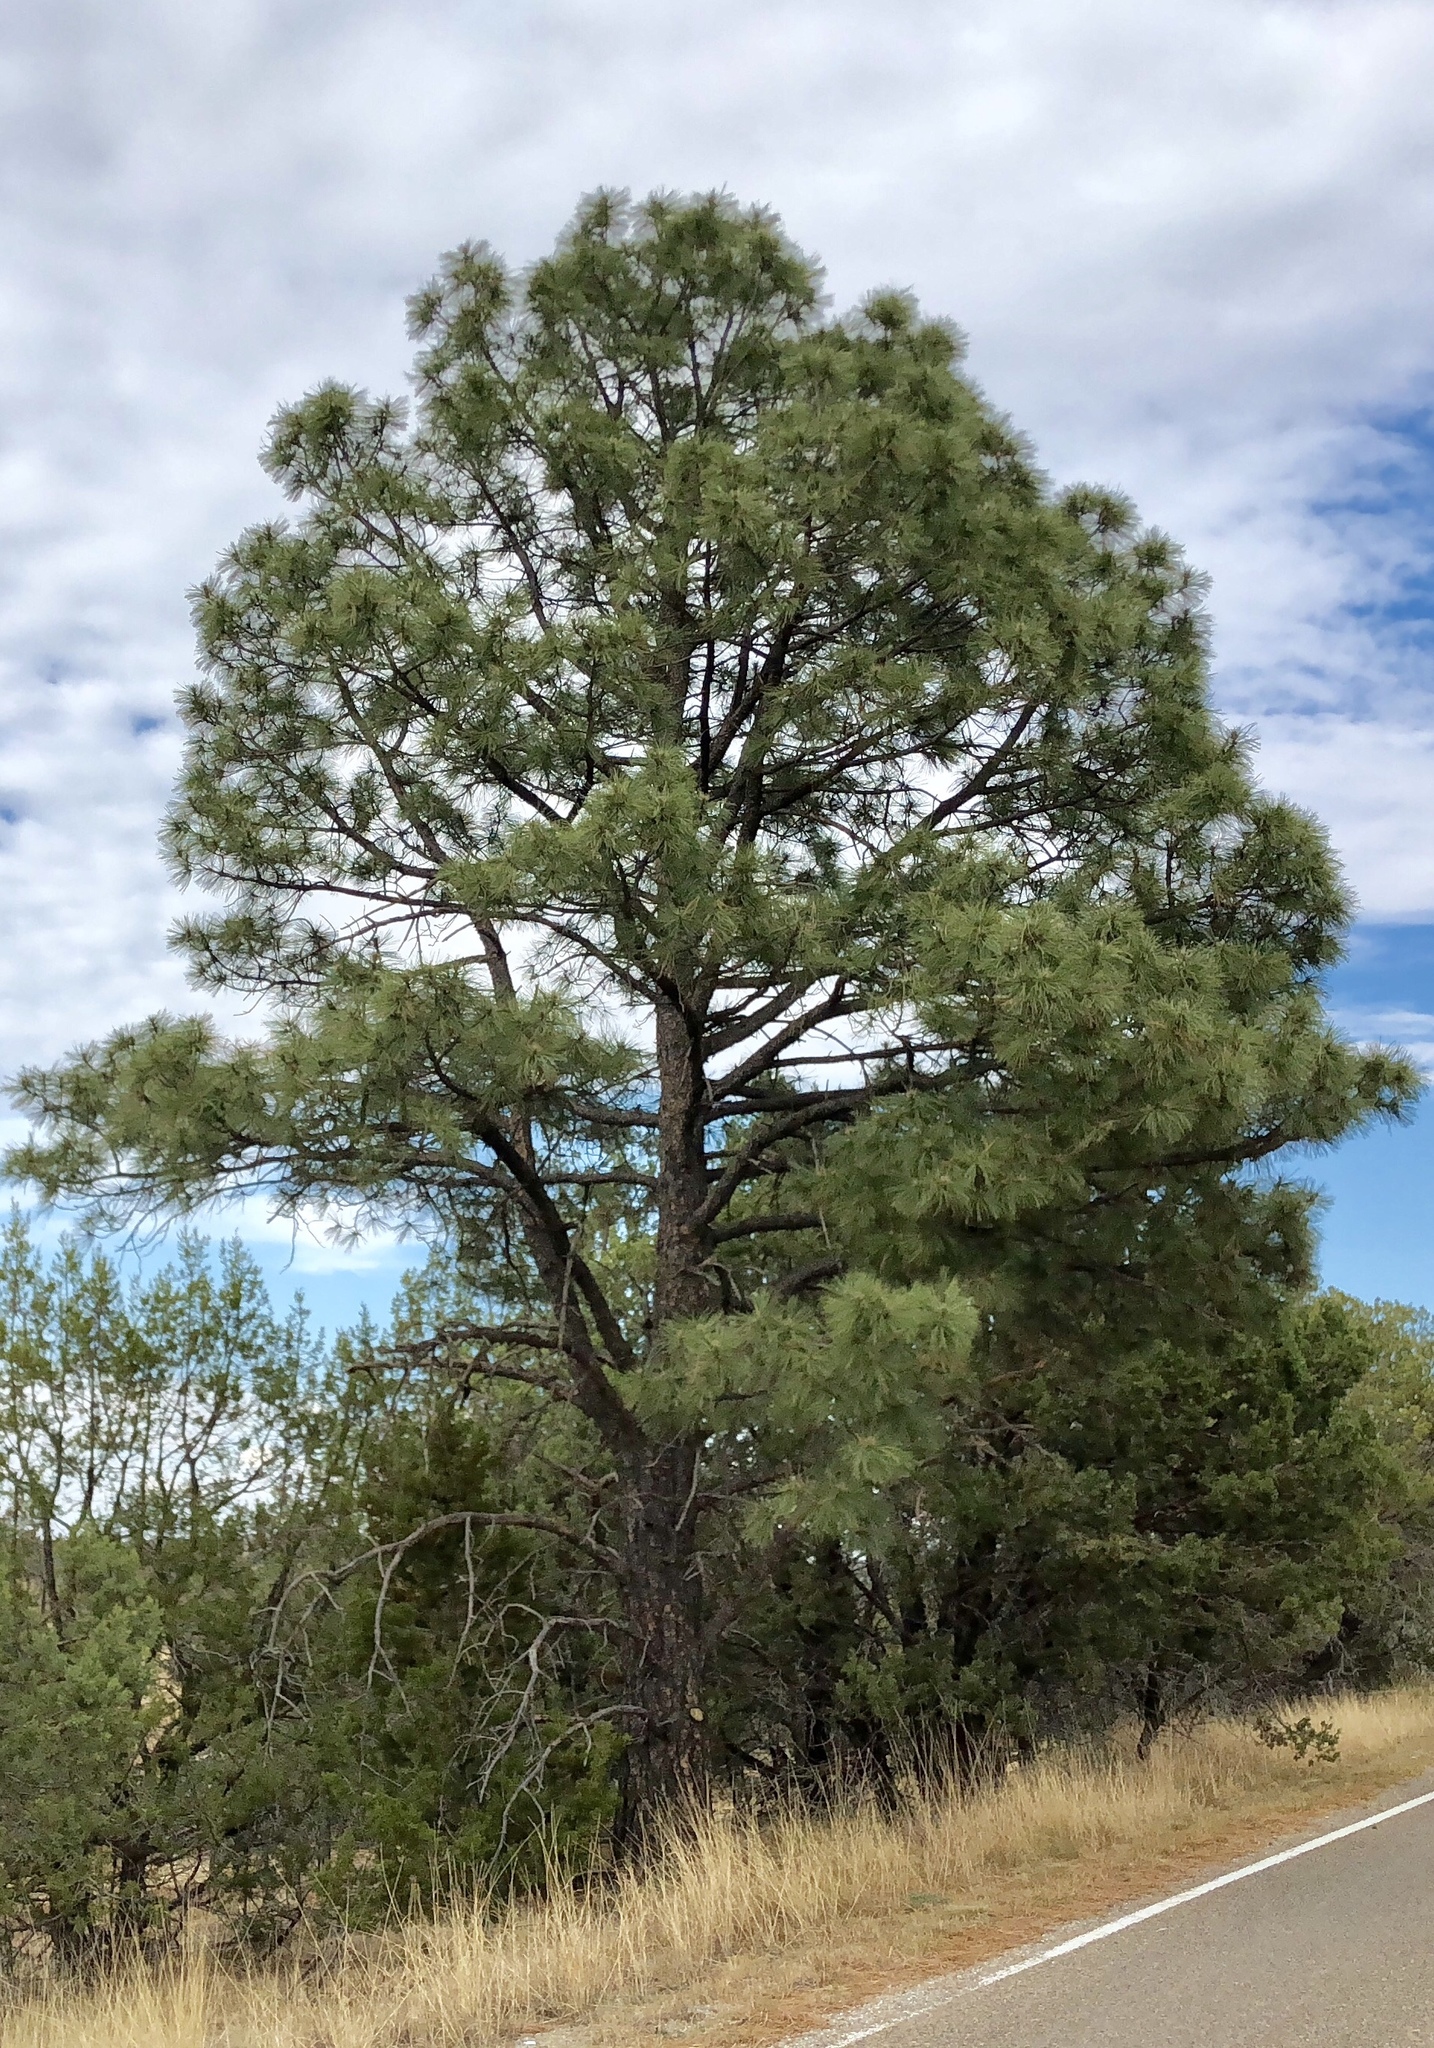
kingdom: Plantae
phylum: Tracheophyta
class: Pinopsida
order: Pinales
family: Pinaceae
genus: Pinus
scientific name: Pinus ponderosa
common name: Western yellow-pine
